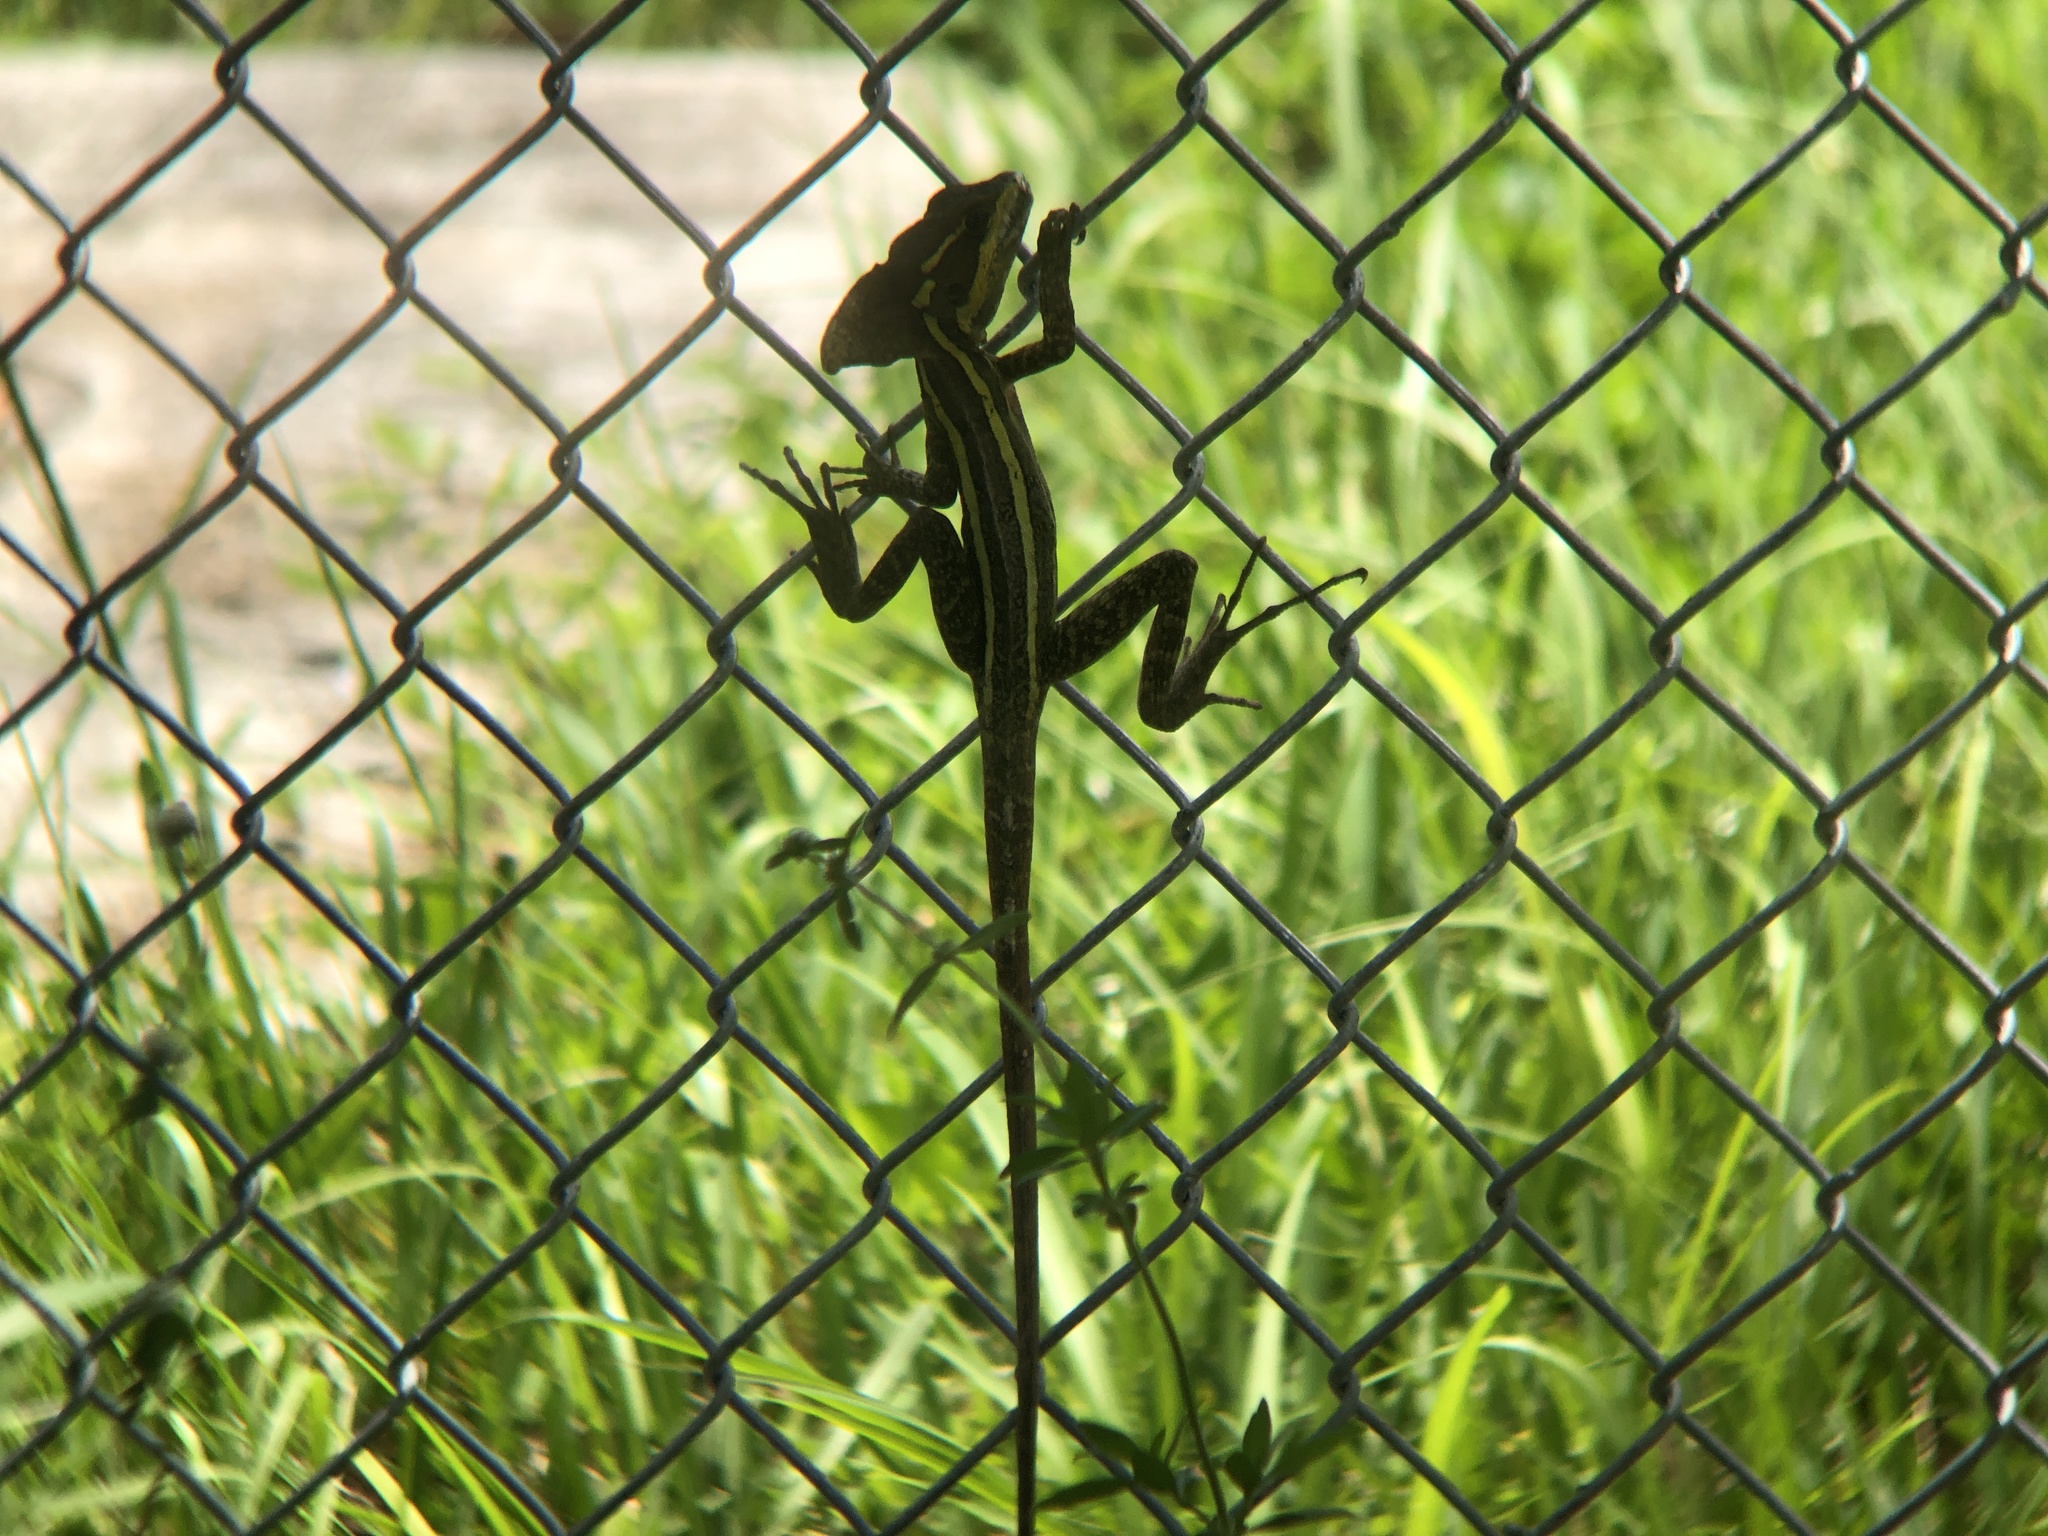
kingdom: Animalia
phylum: Chordata
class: Squamata
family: Corytophanidae
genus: Basiliscus
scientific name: Basiliscus vittatus
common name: Brown basilisk
